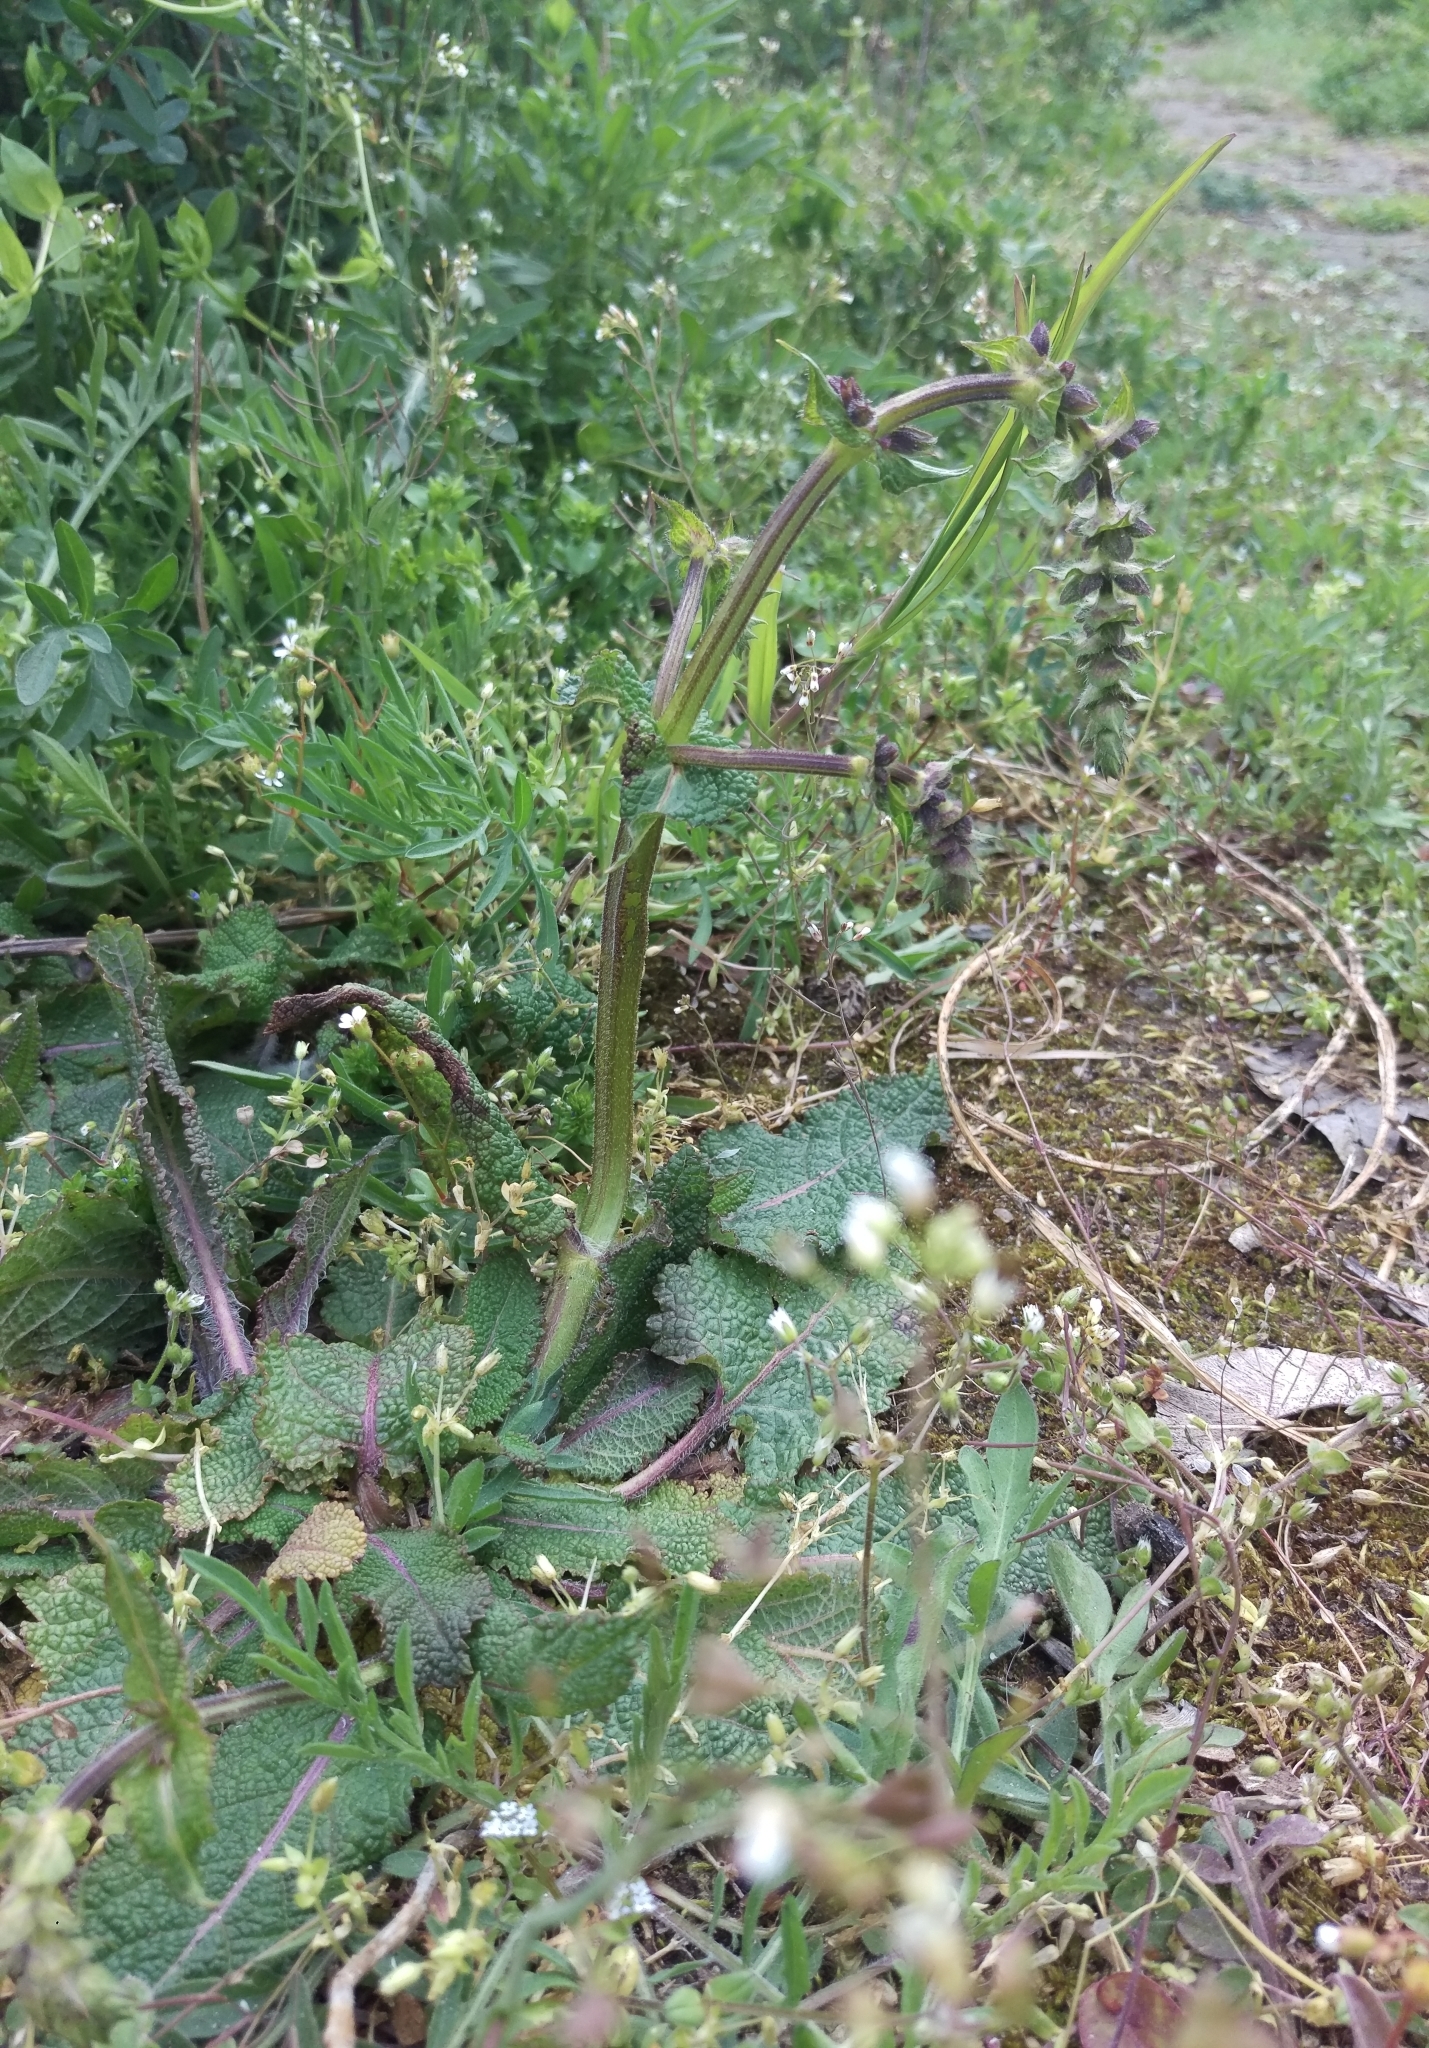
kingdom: Plantae
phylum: Tracheophyta
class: Magnoliopsida
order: Lamiales
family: Lamiaceae
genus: Salvia
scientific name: Salvia pratensis
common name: Meadow sage
